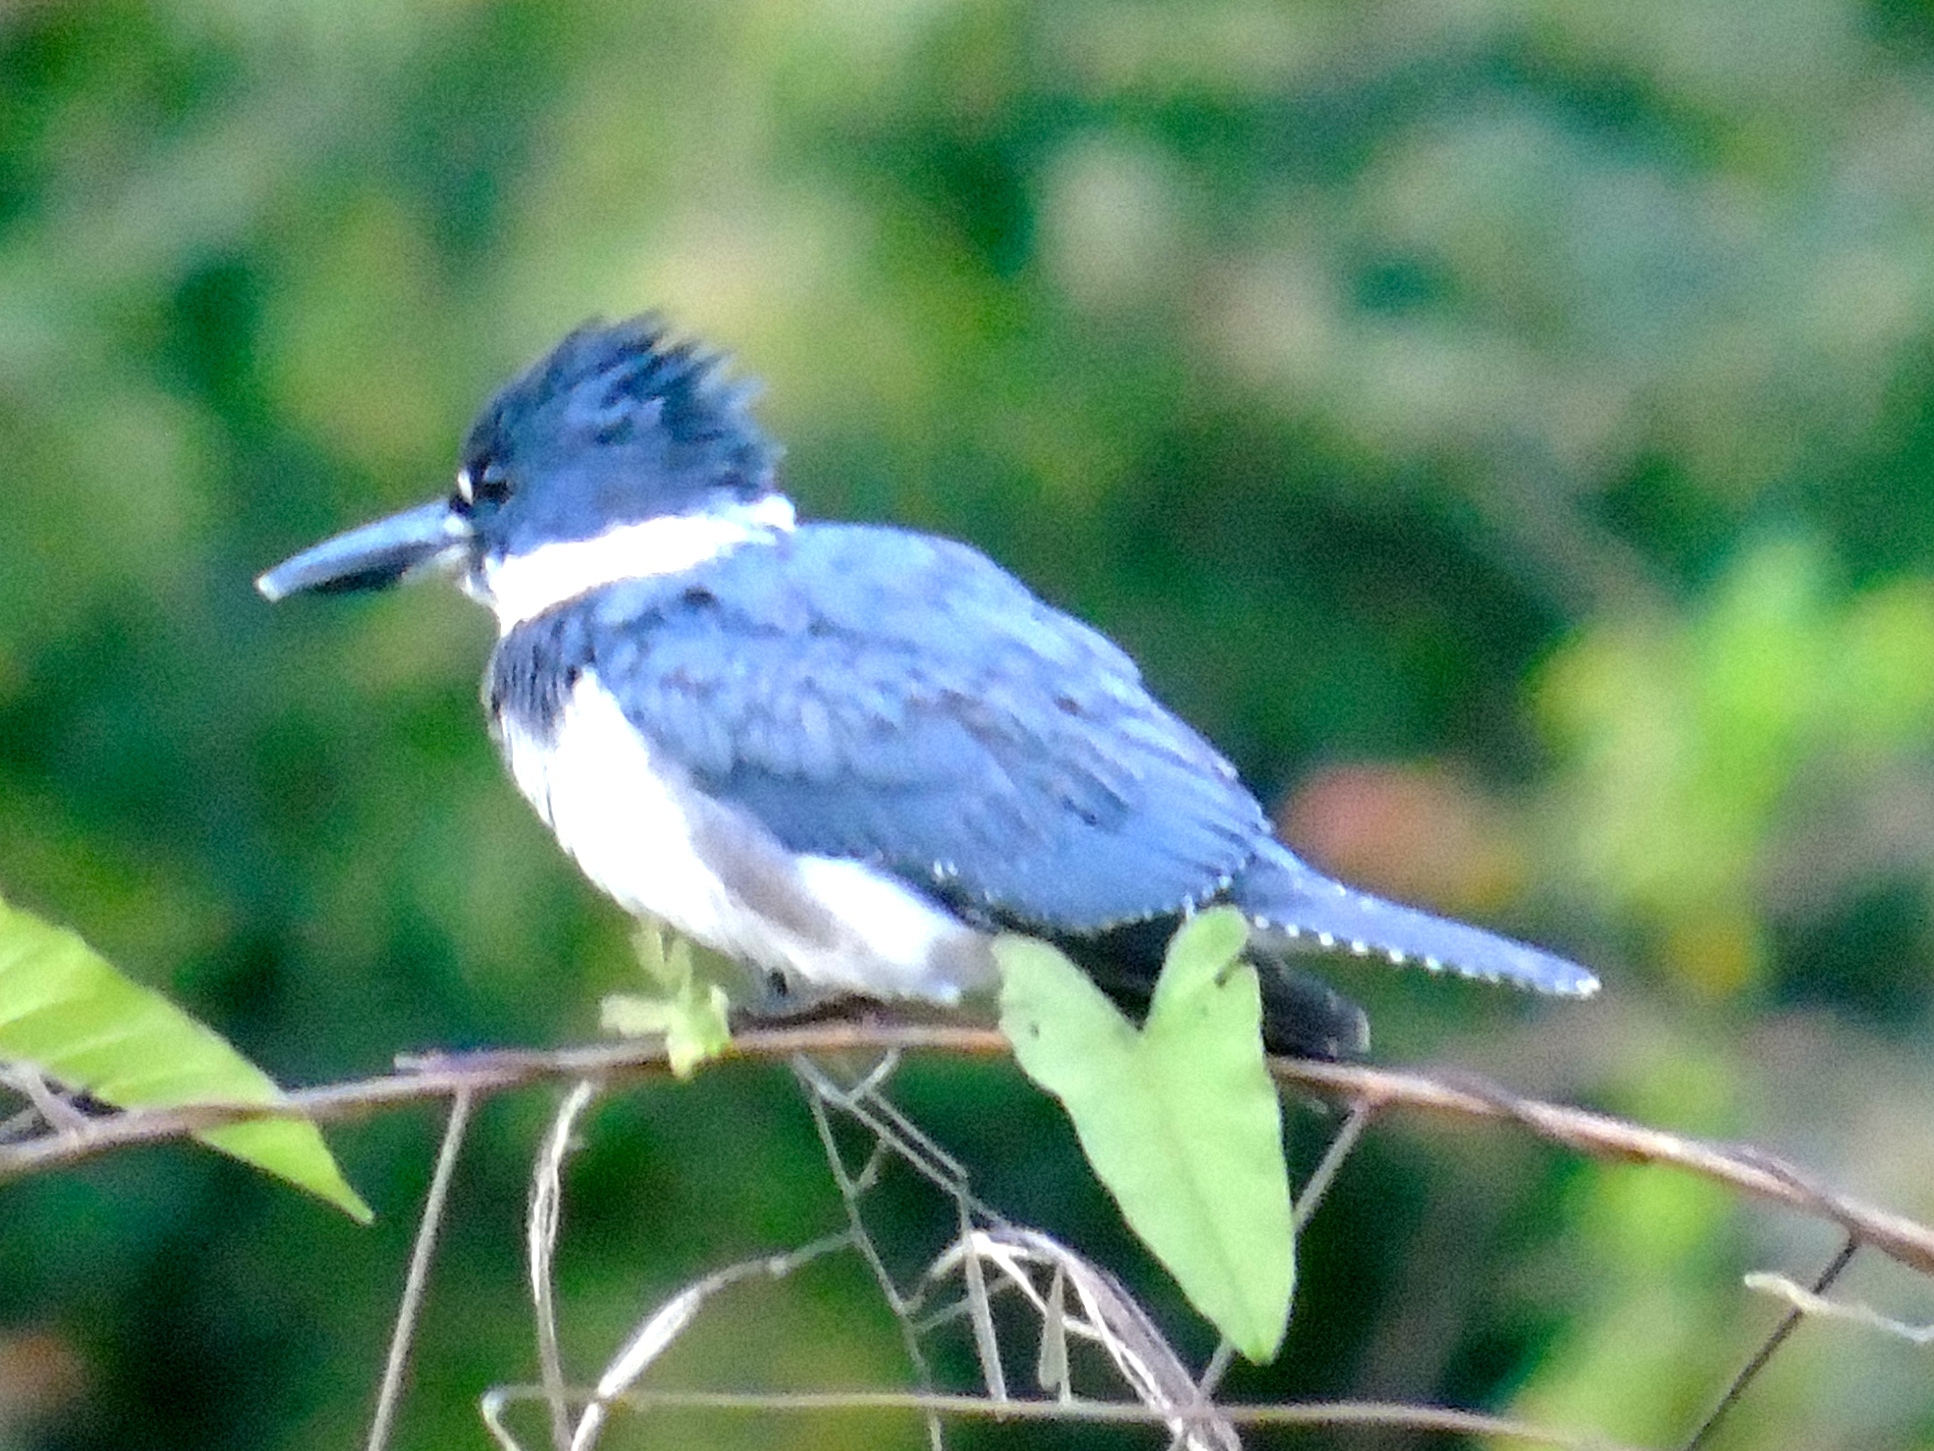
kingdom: Animalia
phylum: Chordata
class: Aves
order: Coraciiformes
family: Alcedinidae
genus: Megaceryle
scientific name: Megaceryle alcyon
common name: Belted kingfisher
